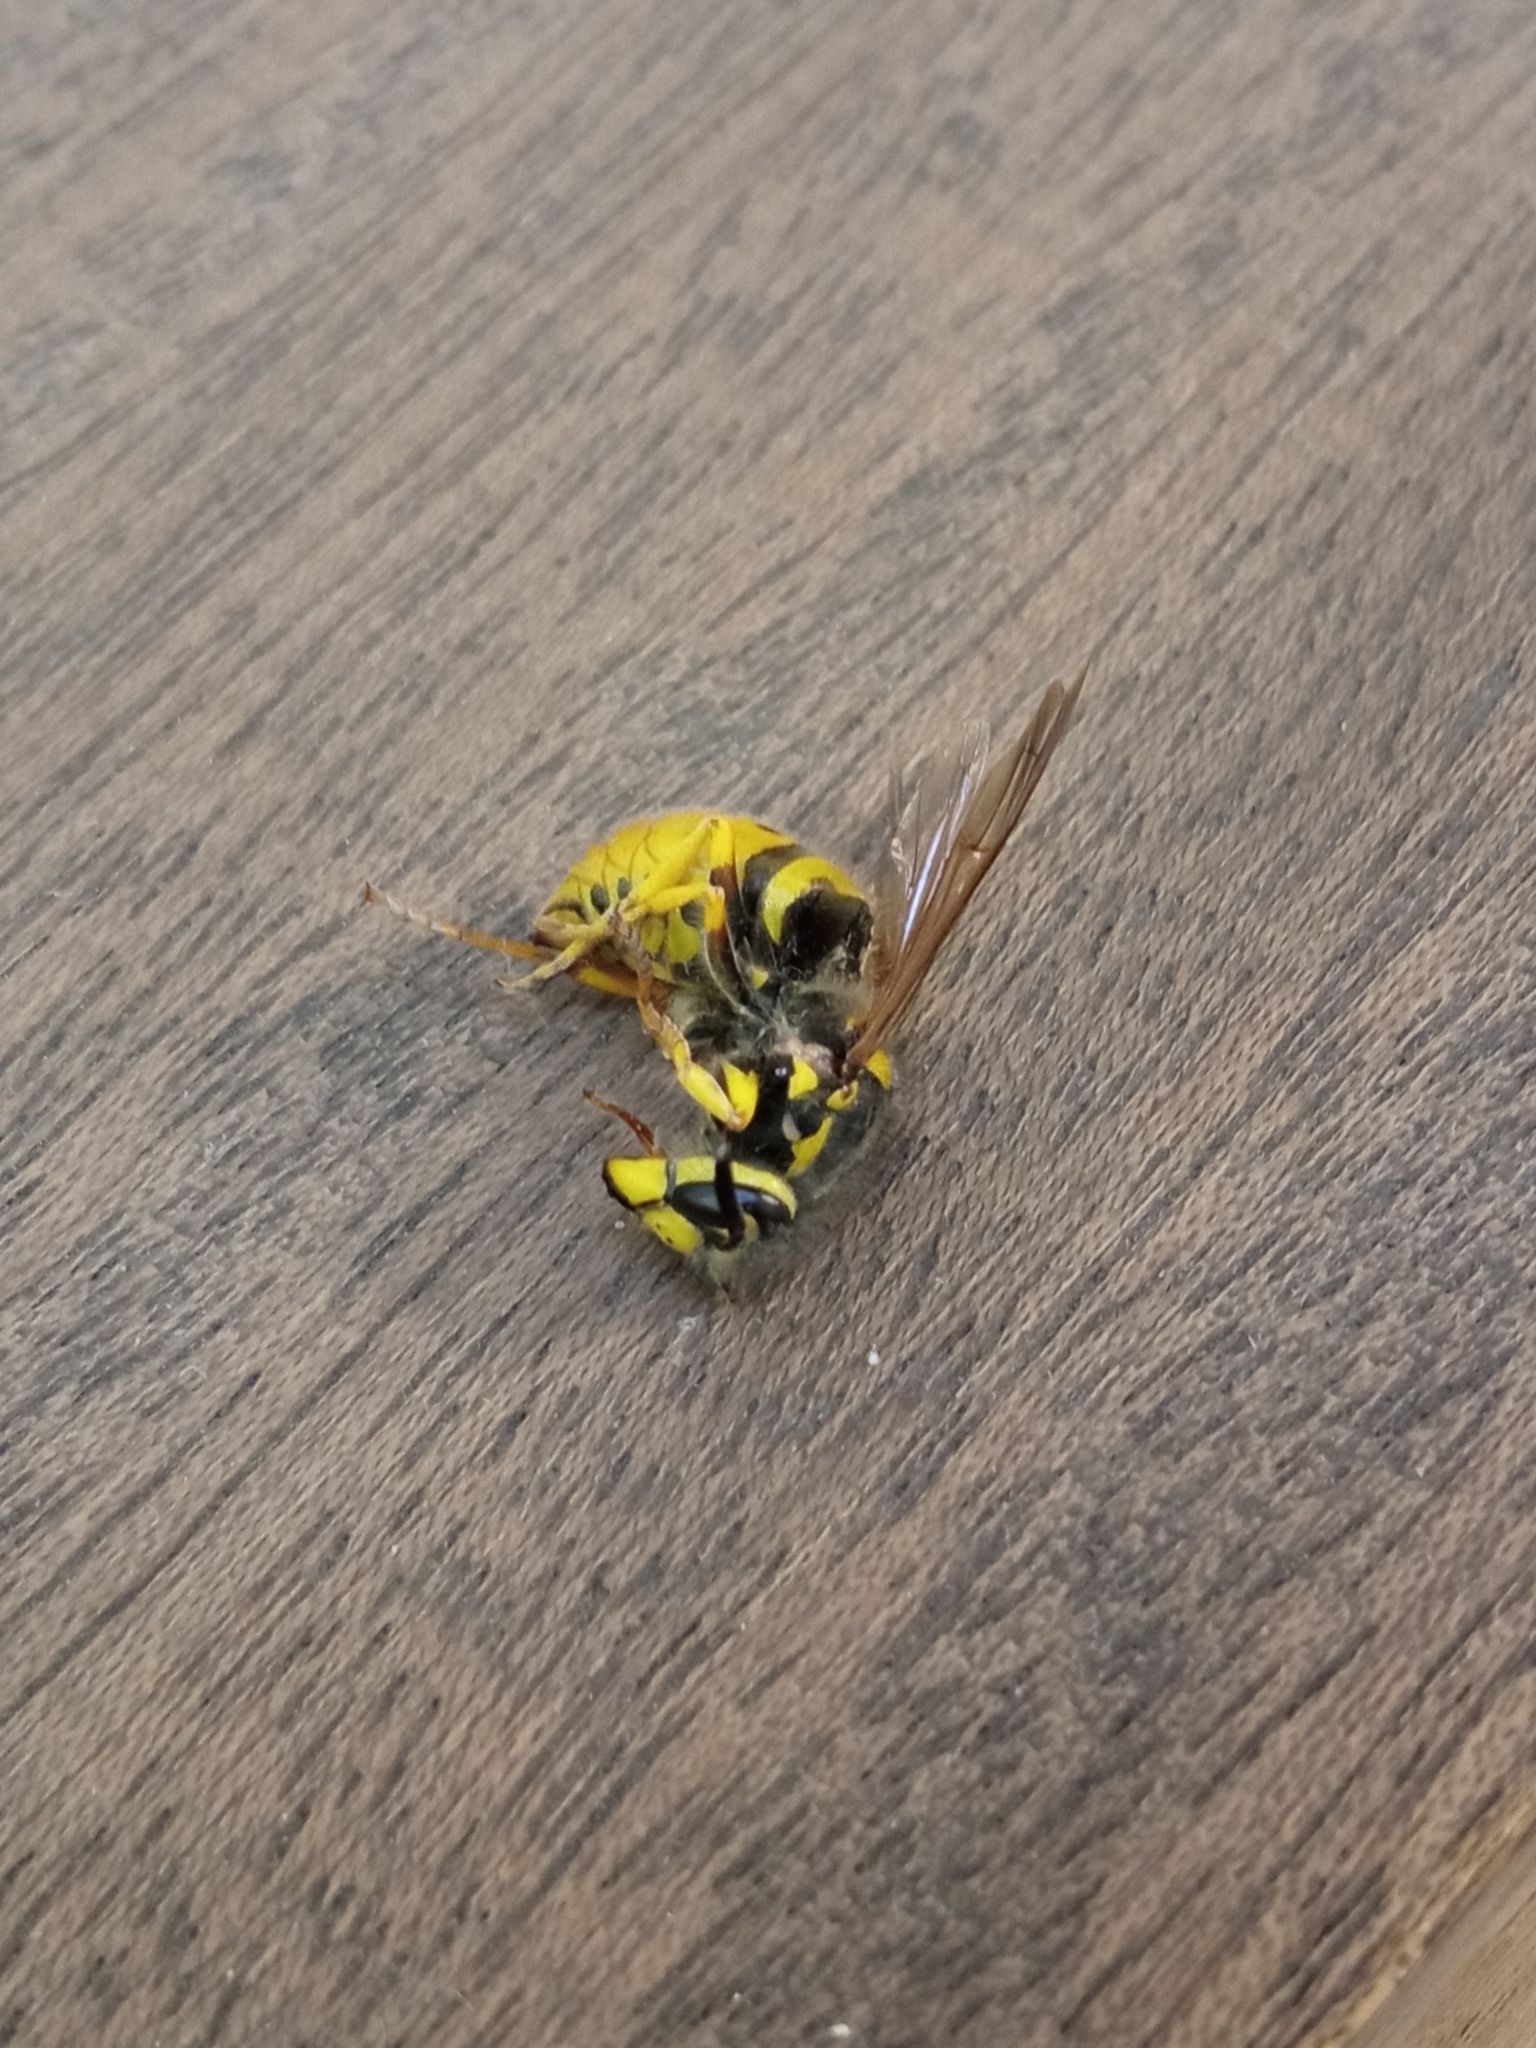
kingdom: Animalia
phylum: Arthropoda
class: Insecta
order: Hymenoptera
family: Vespidae
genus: Vespula
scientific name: Vespula germanica
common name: German wasp
